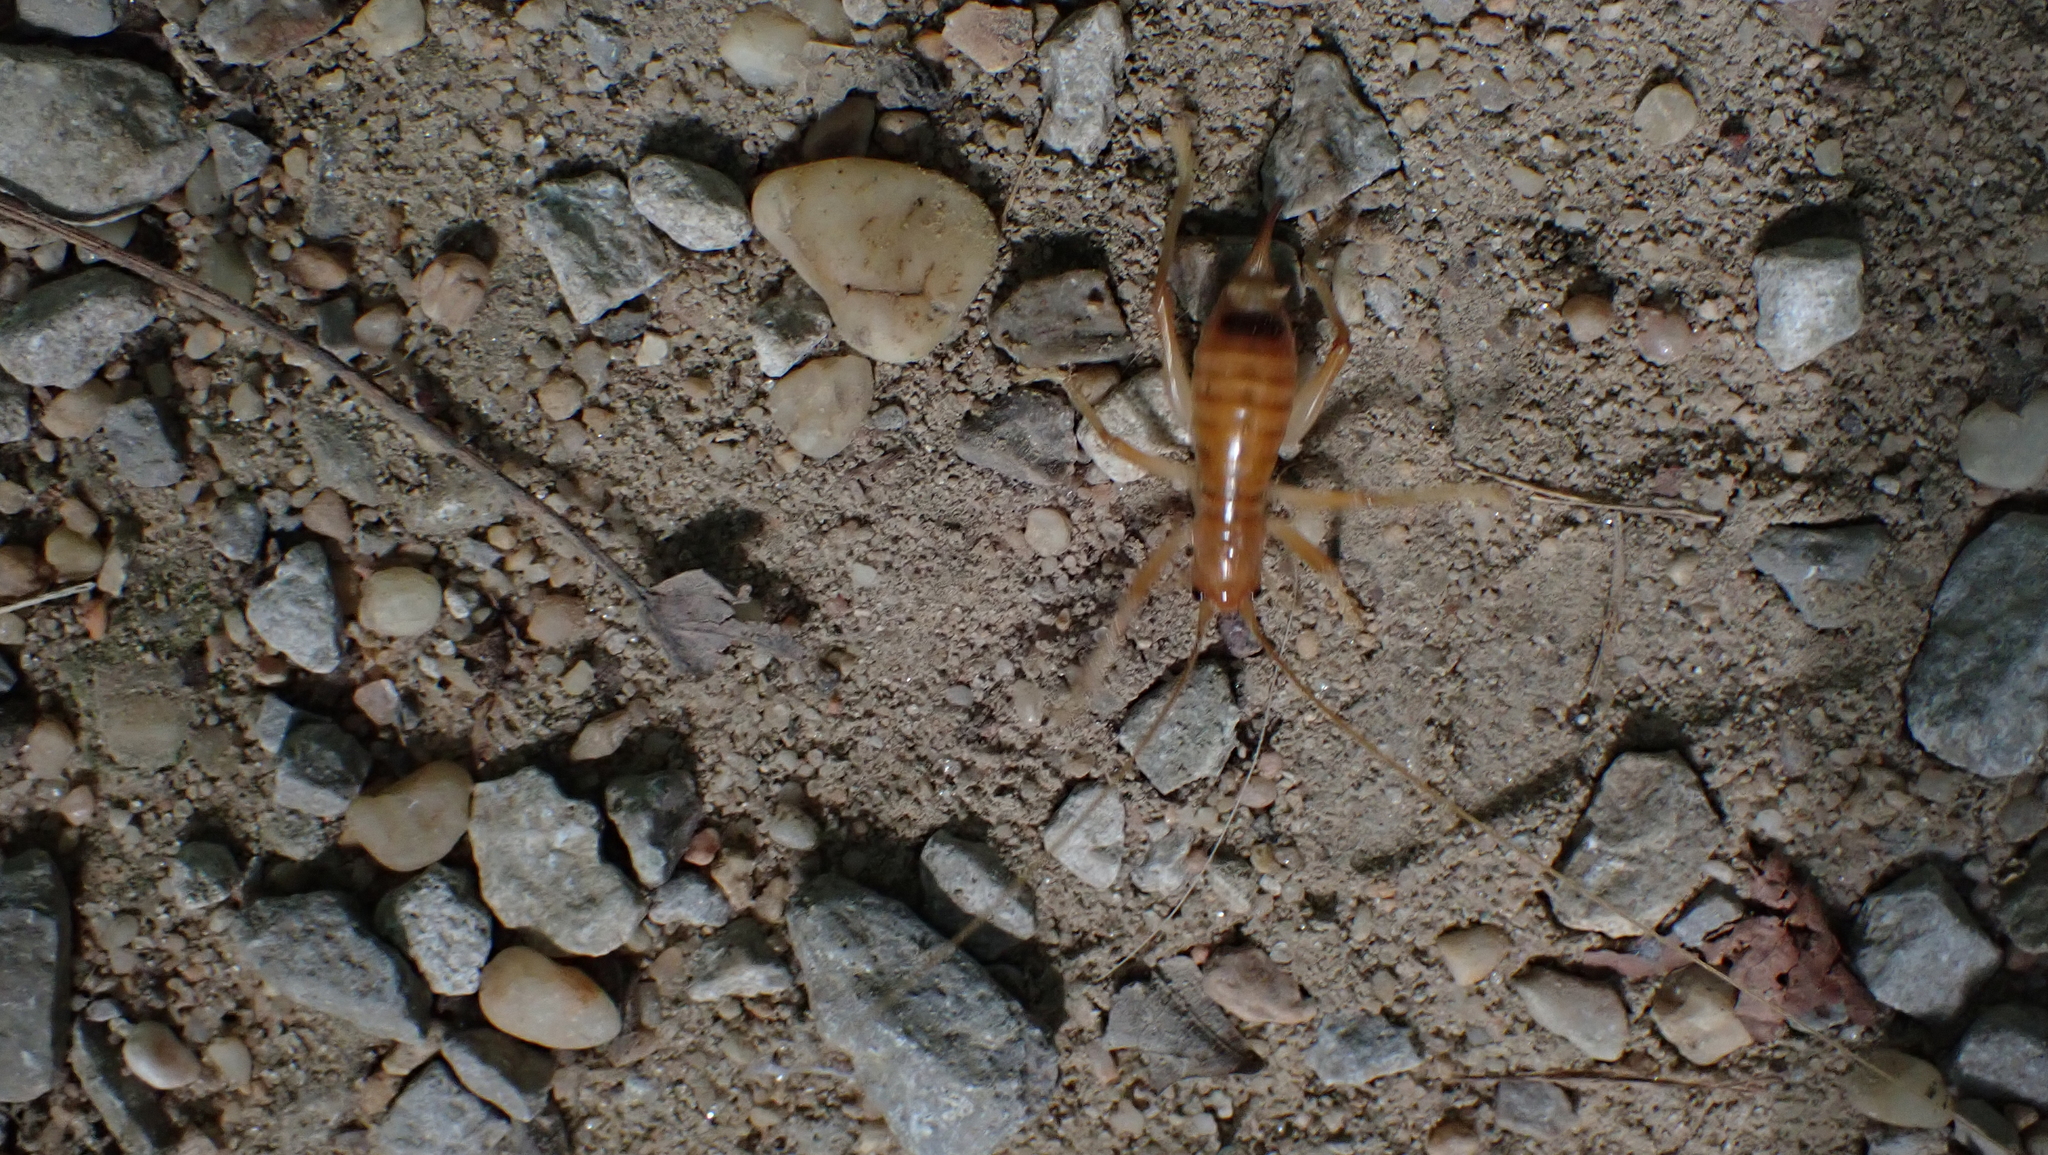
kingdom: Animalia
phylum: Arthropoda
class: Insecta
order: Orthoptera
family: Gryllacrididae
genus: Camptonotus
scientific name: Camptonotus carolinensis
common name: Carolina leaf-roller
